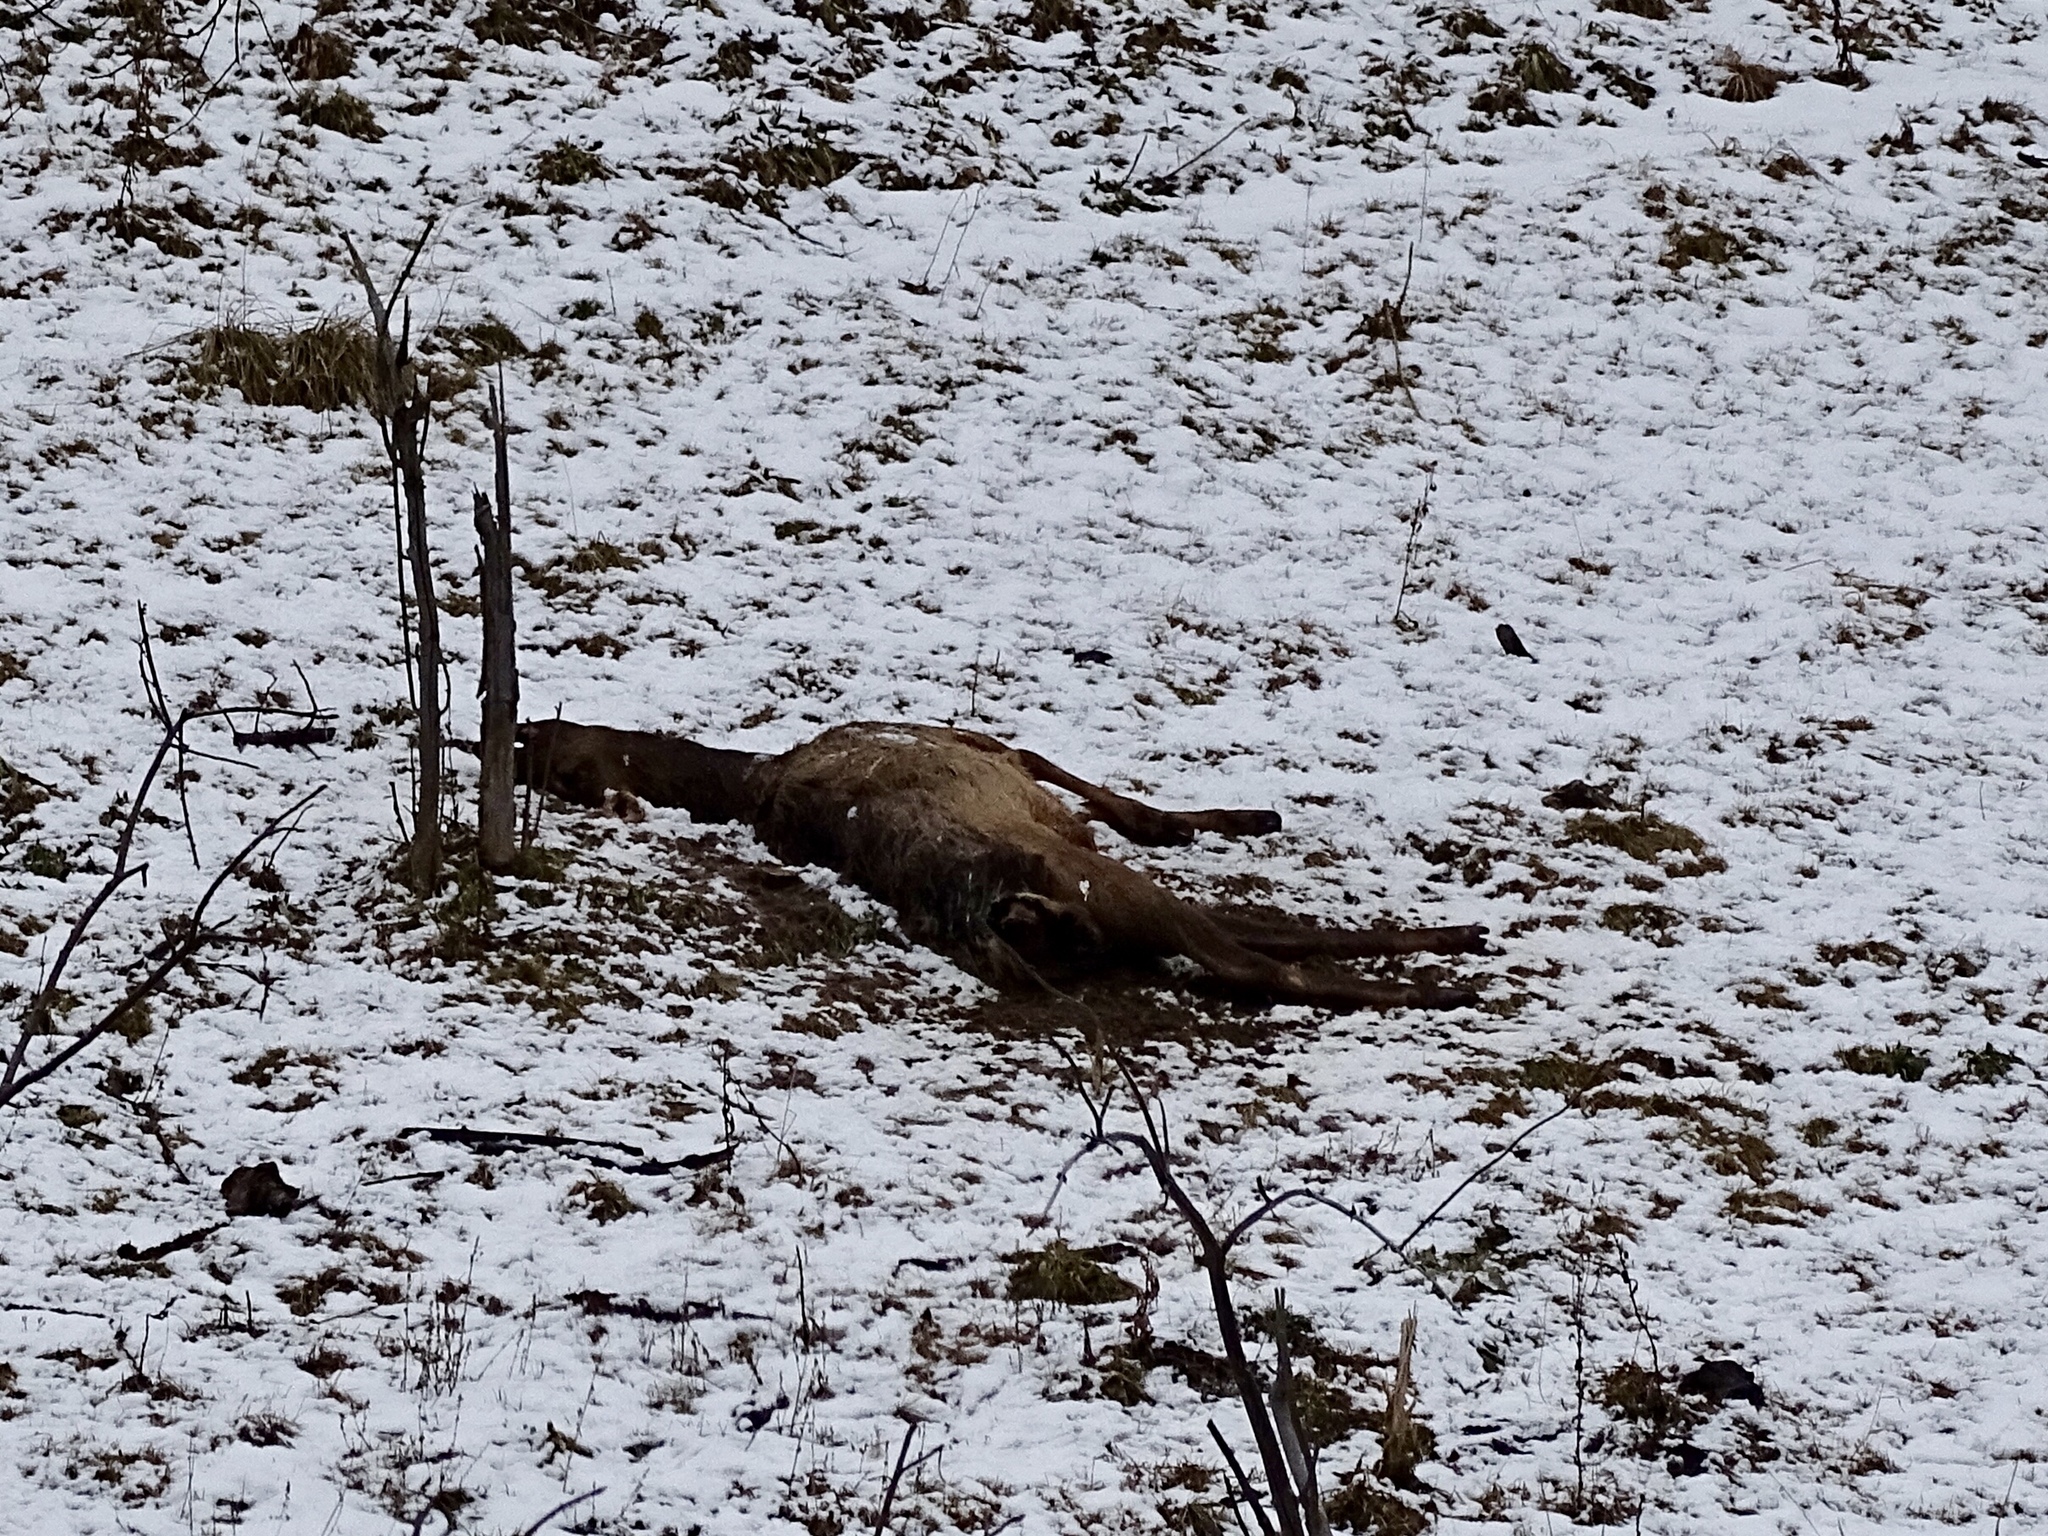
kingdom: Animalia
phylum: Chordata
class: Mammalia
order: Artiodactyla
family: Cervidae
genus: Cervus
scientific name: Cervus elaphus
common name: Red deer
